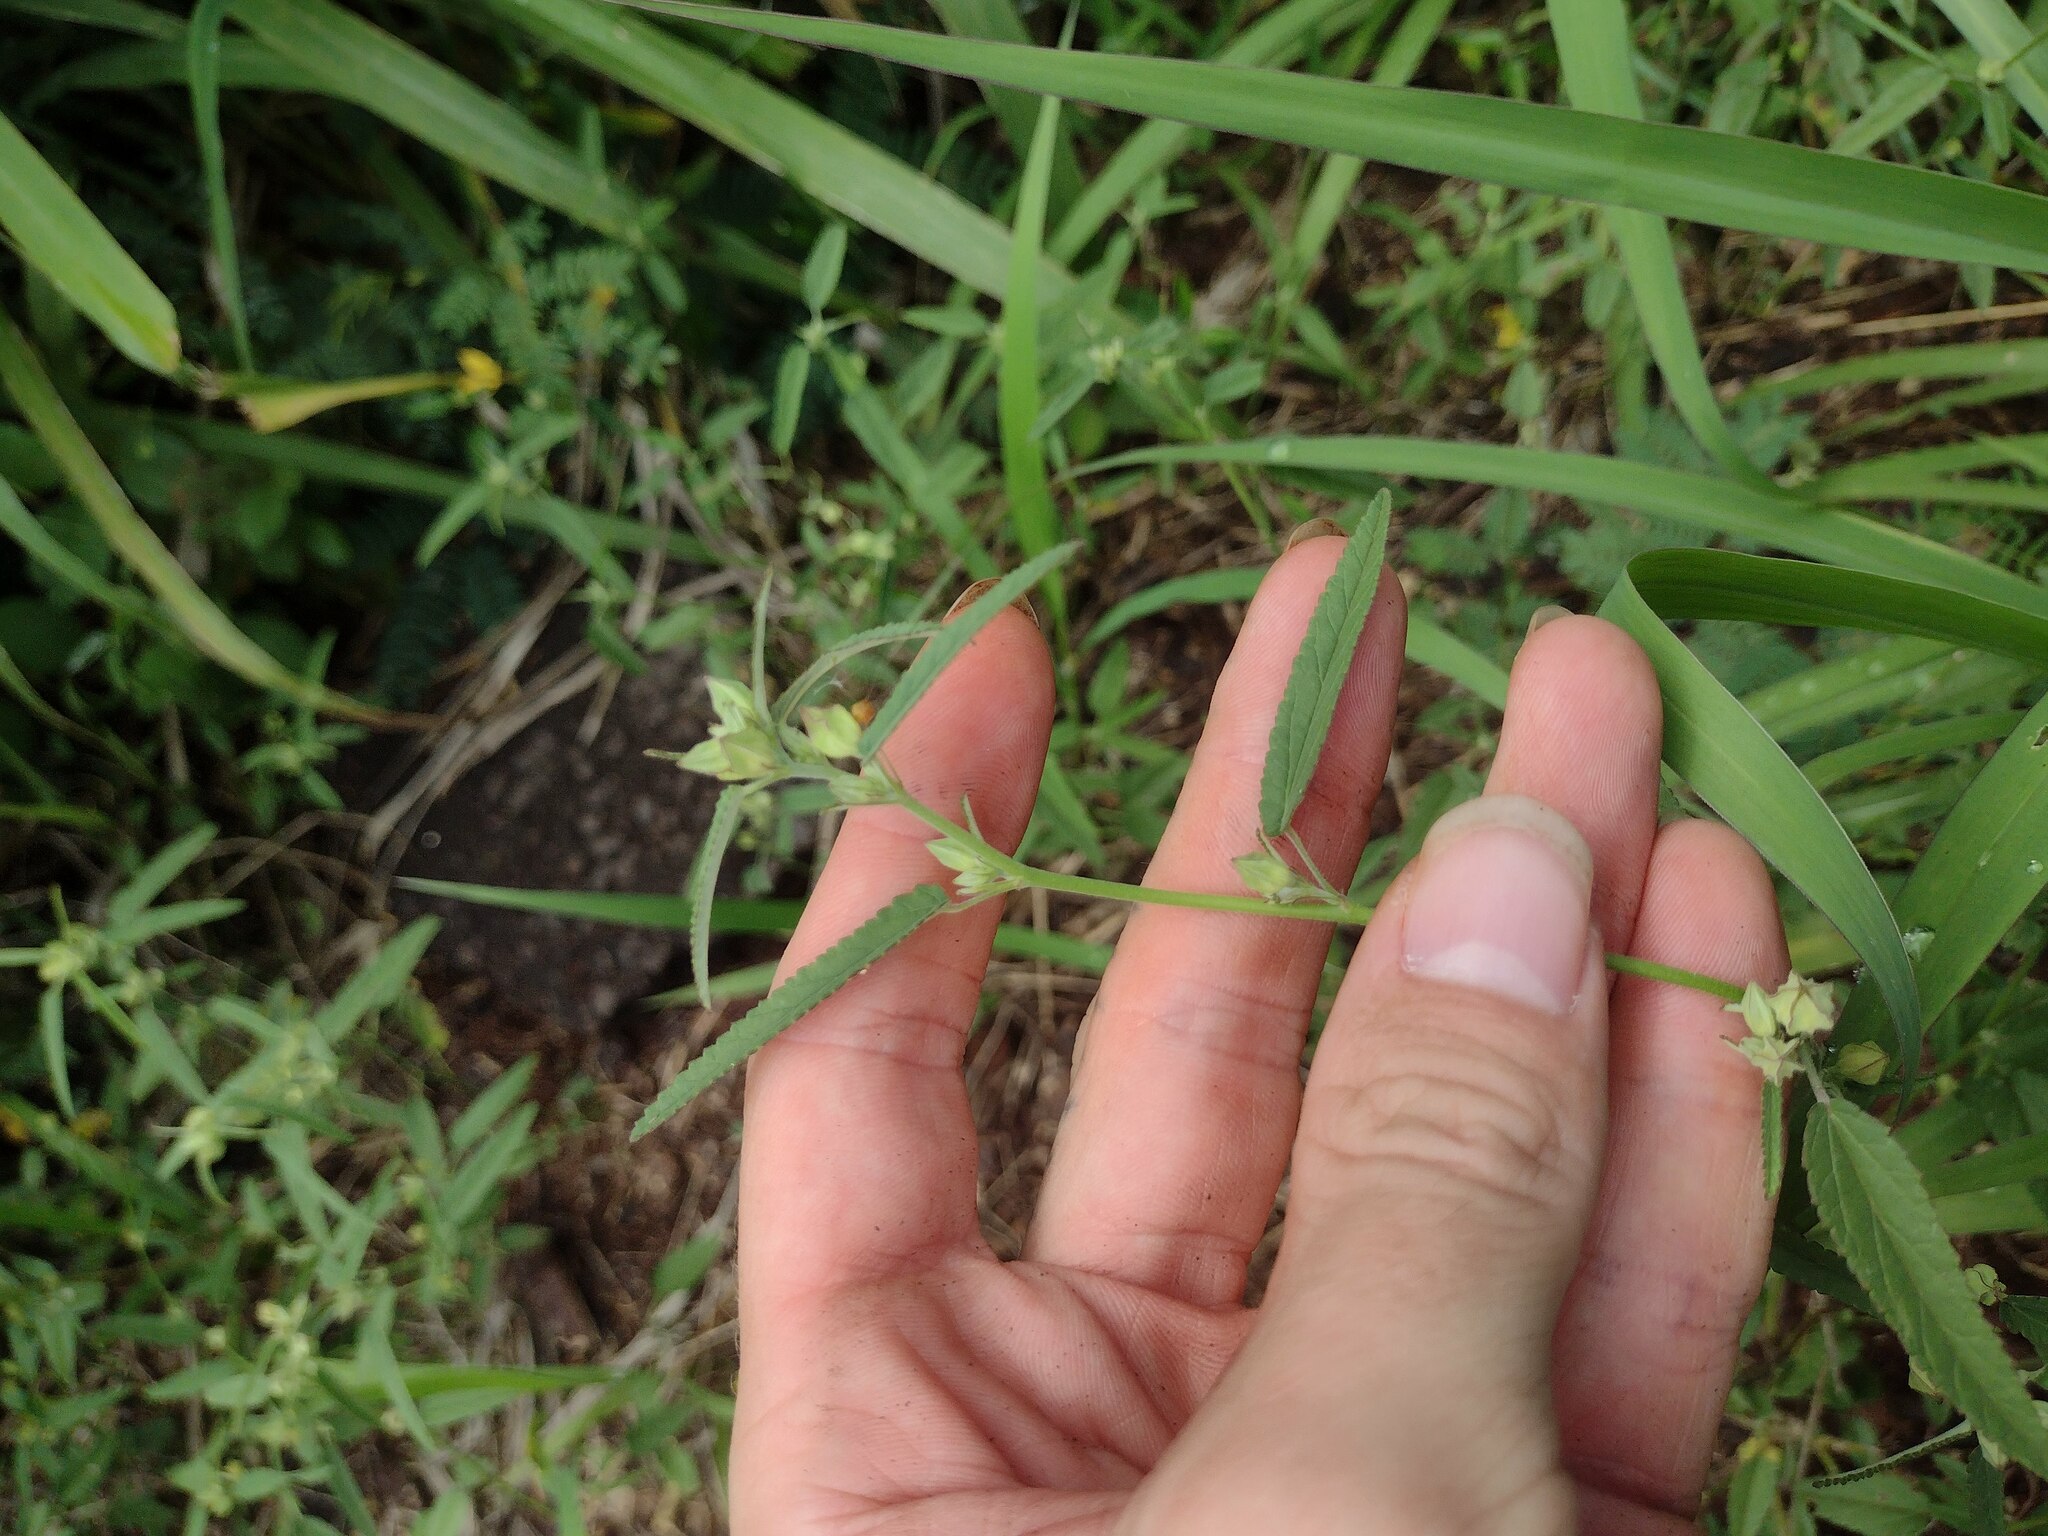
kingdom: Plantae
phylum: Tracheophyta
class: Magnoliopsida
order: Malvales
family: Malvaceae
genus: Sida
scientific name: Sida spinosa
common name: Prickly fanpetals
